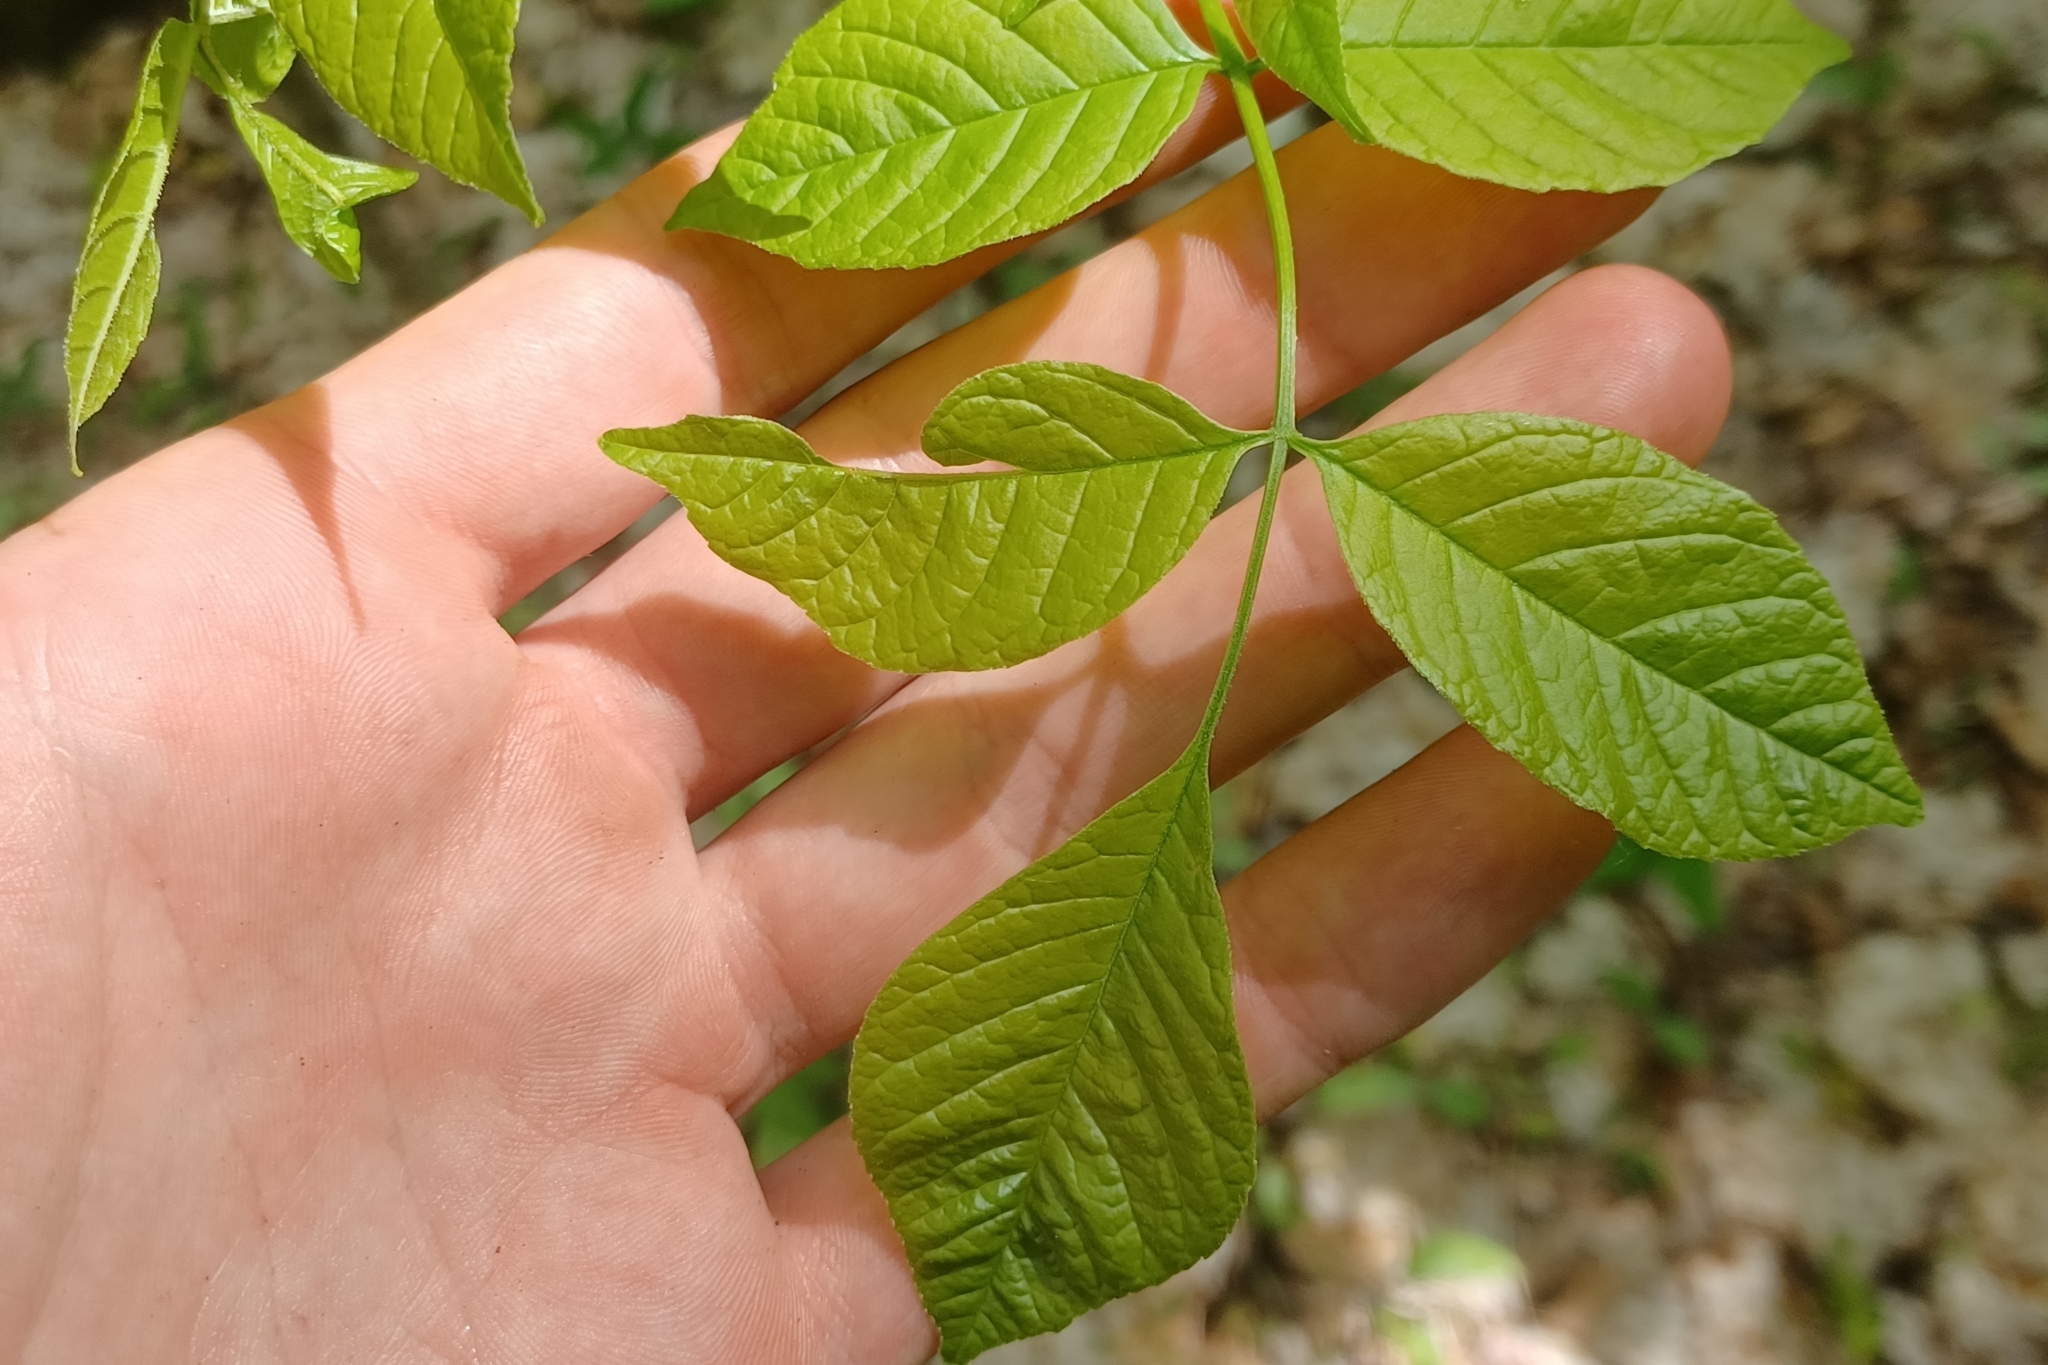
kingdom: Plantae
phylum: Tracheophyta
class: Magnoliopsida
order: Lamiales
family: Oleaceae
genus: Fraxinus
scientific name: Fraxinus americana
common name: White ash
